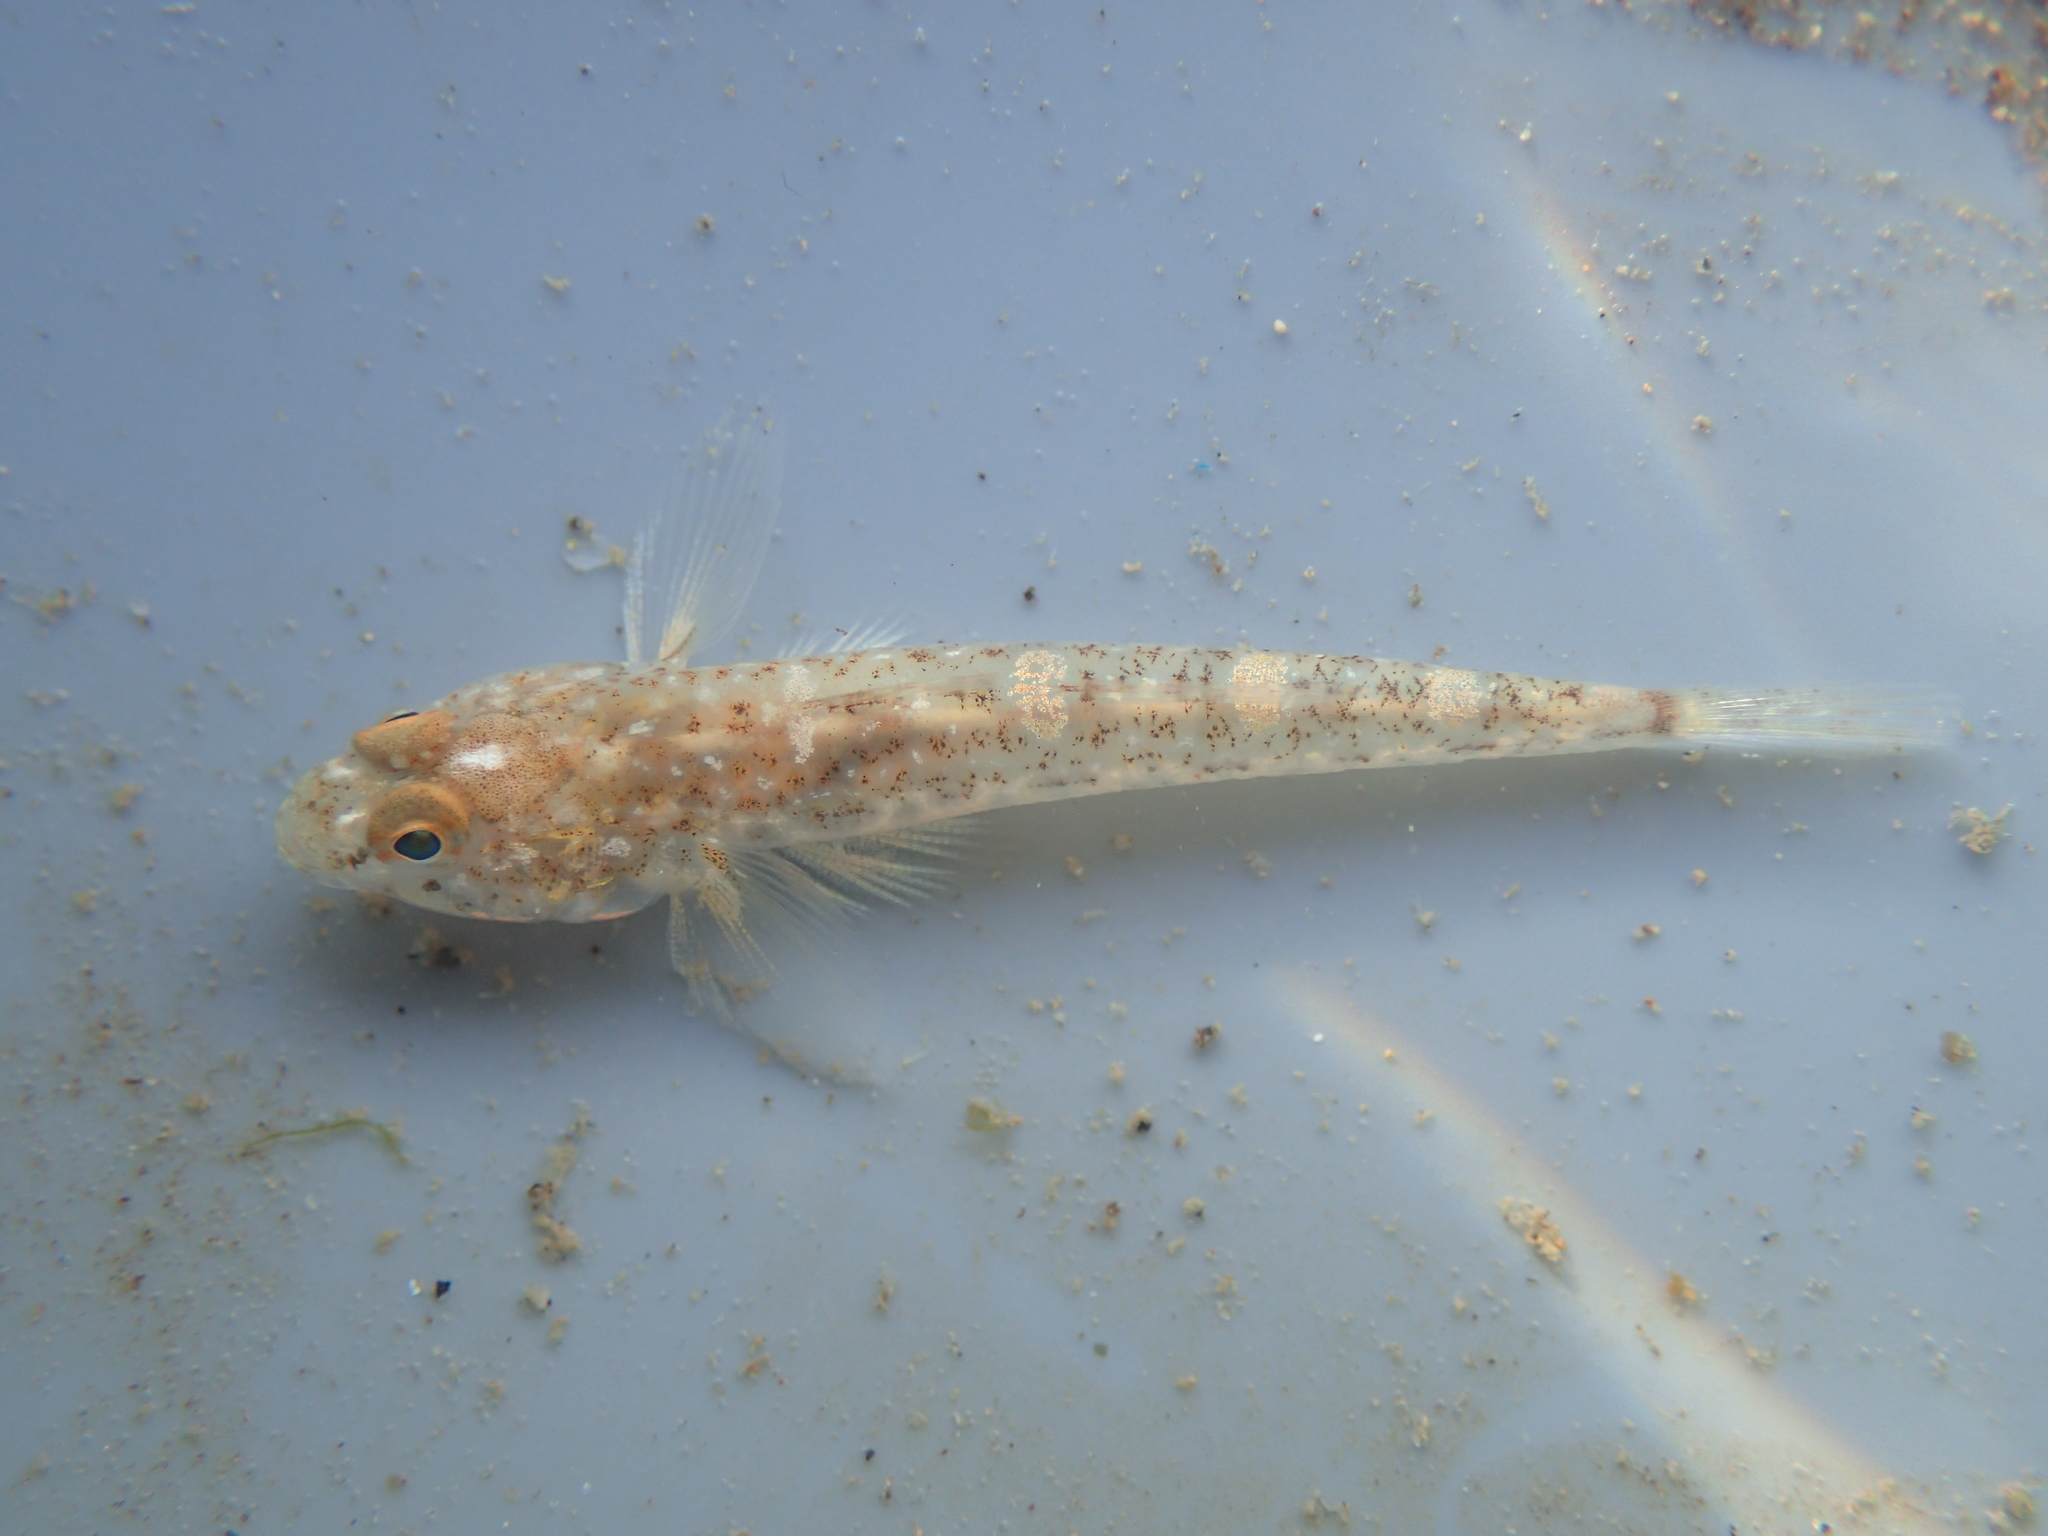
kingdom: Animalia
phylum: Chordata
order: Perciformes
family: Gobiidae
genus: Pomatoschistus
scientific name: Pomatoschistus microps
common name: Common goby
